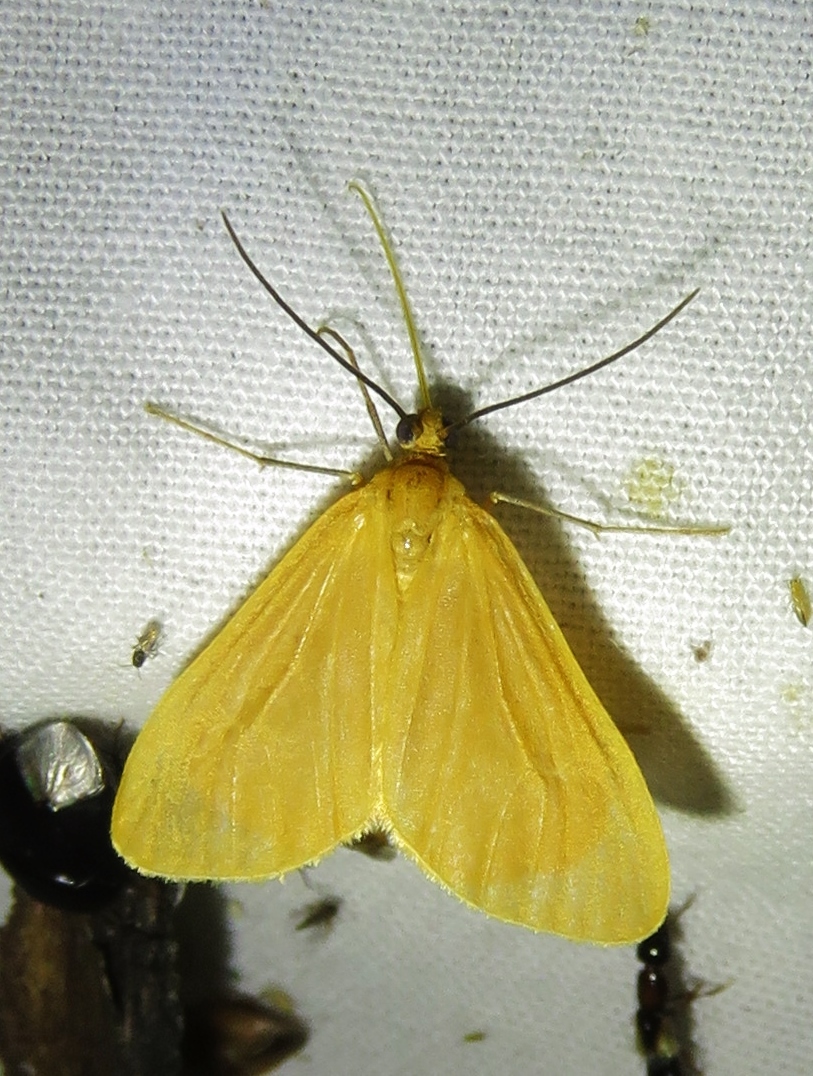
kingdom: Animalia
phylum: Arthropoda
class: Insecta
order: Lepidoptera
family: Geometridae
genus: Eubaphe
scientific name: Eubaphe unicolor
